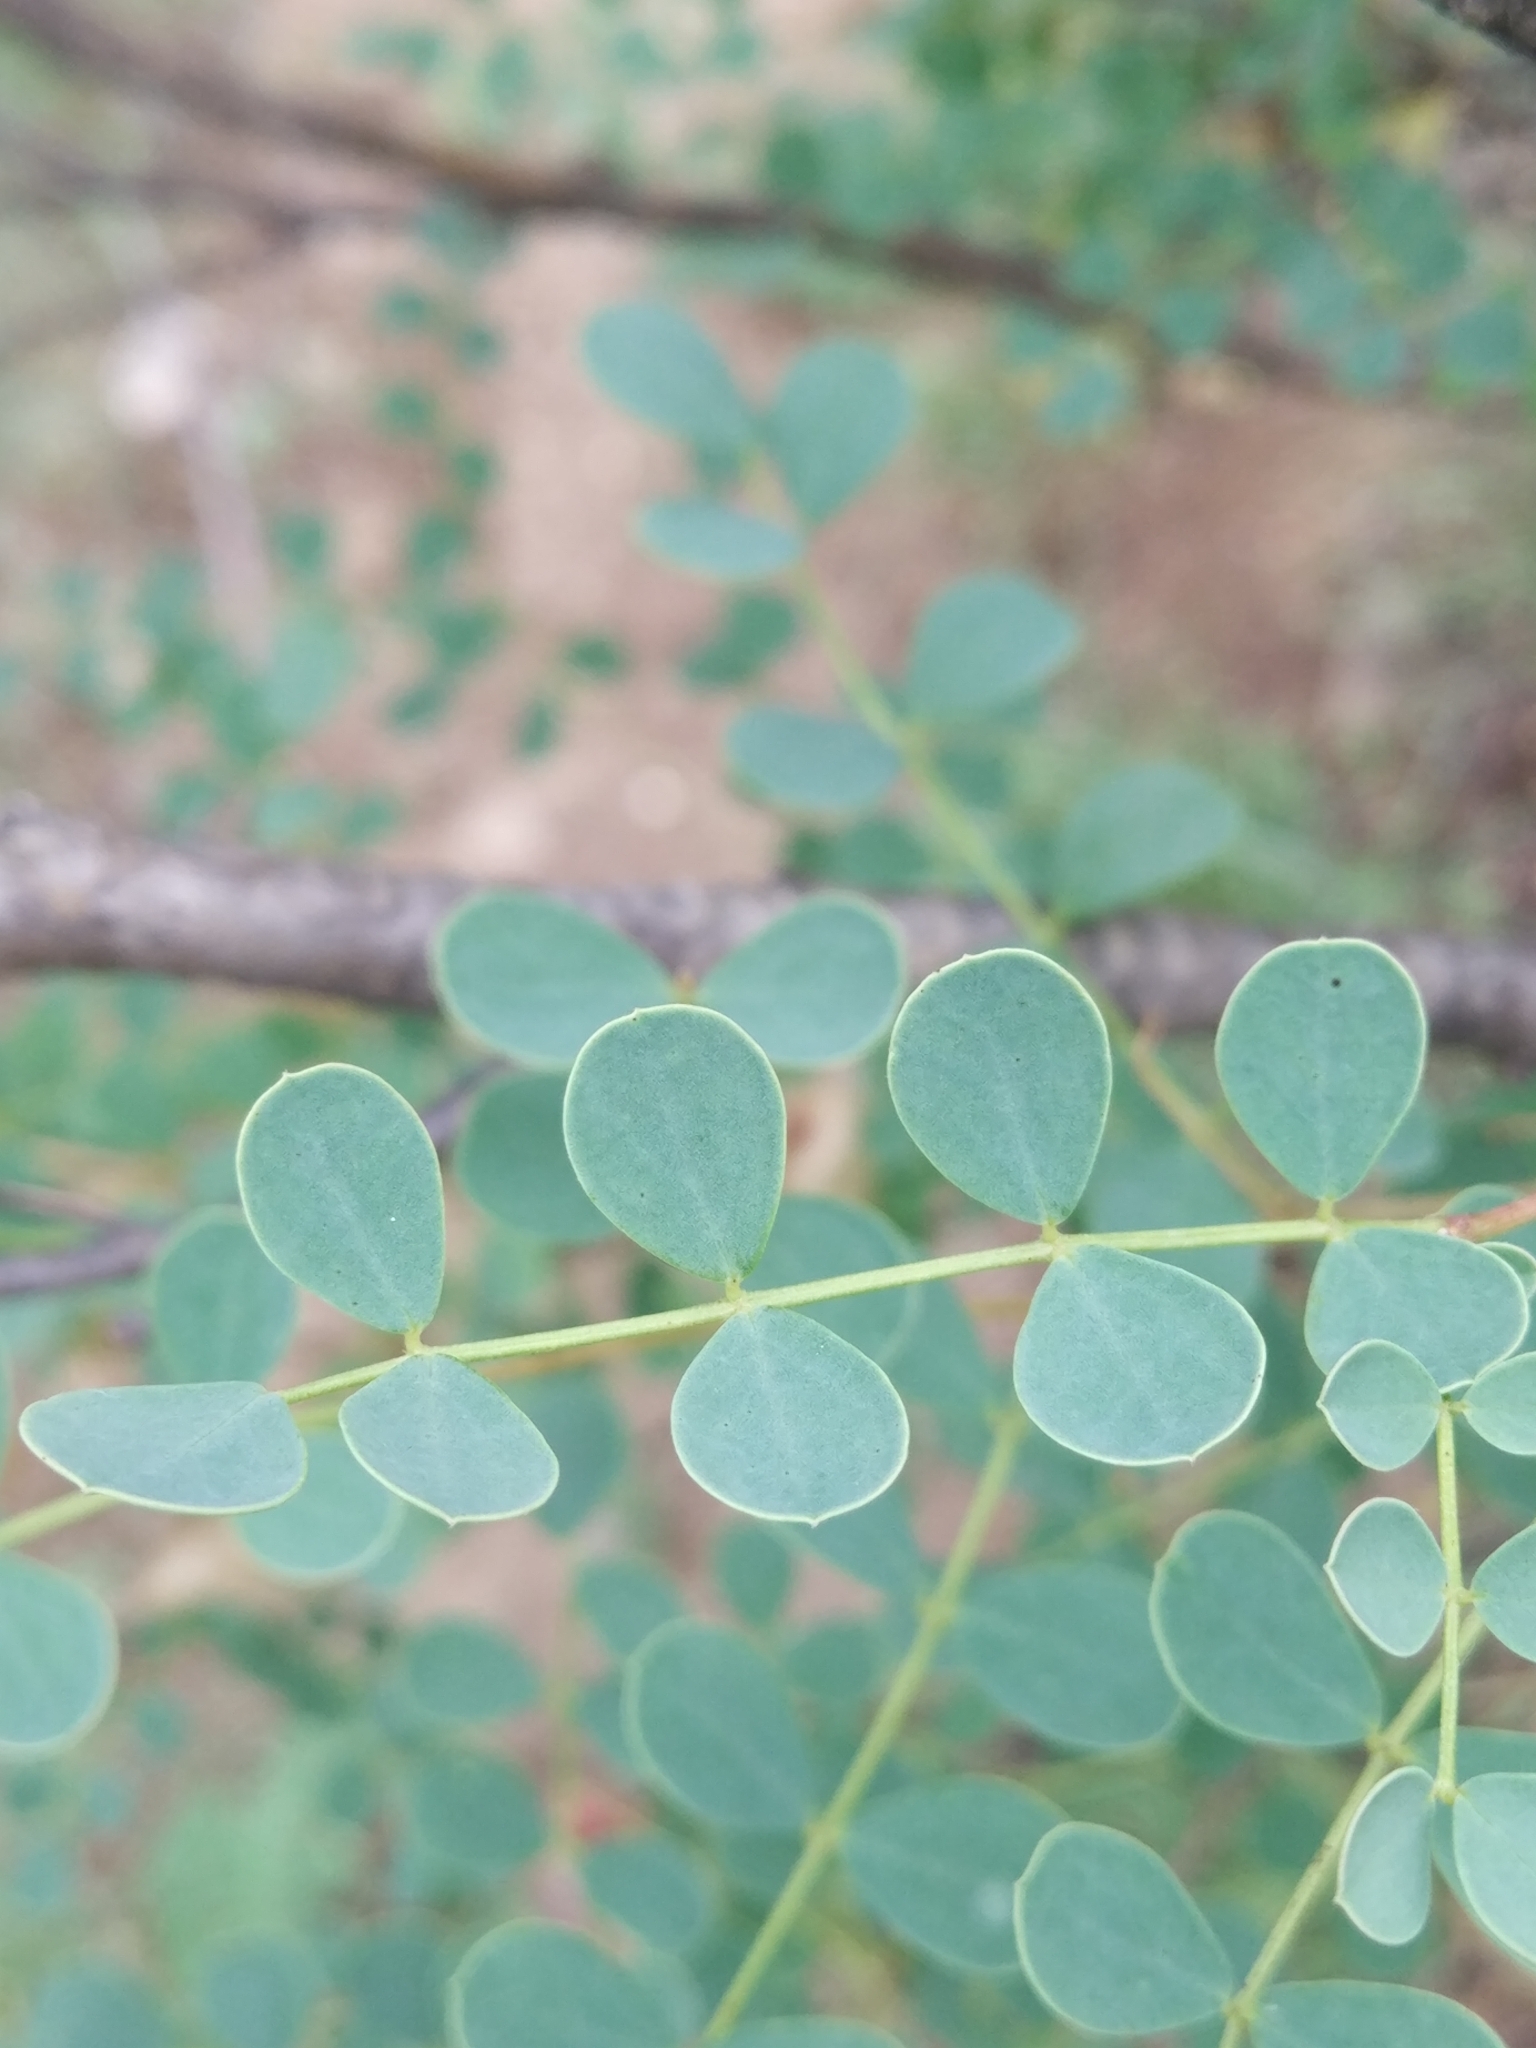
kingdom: Plantae
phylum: Tracheophyta
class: Magnoliopsida
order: Fabales
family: Fabaceae
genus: Colutea
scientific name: Colutea orientalis
